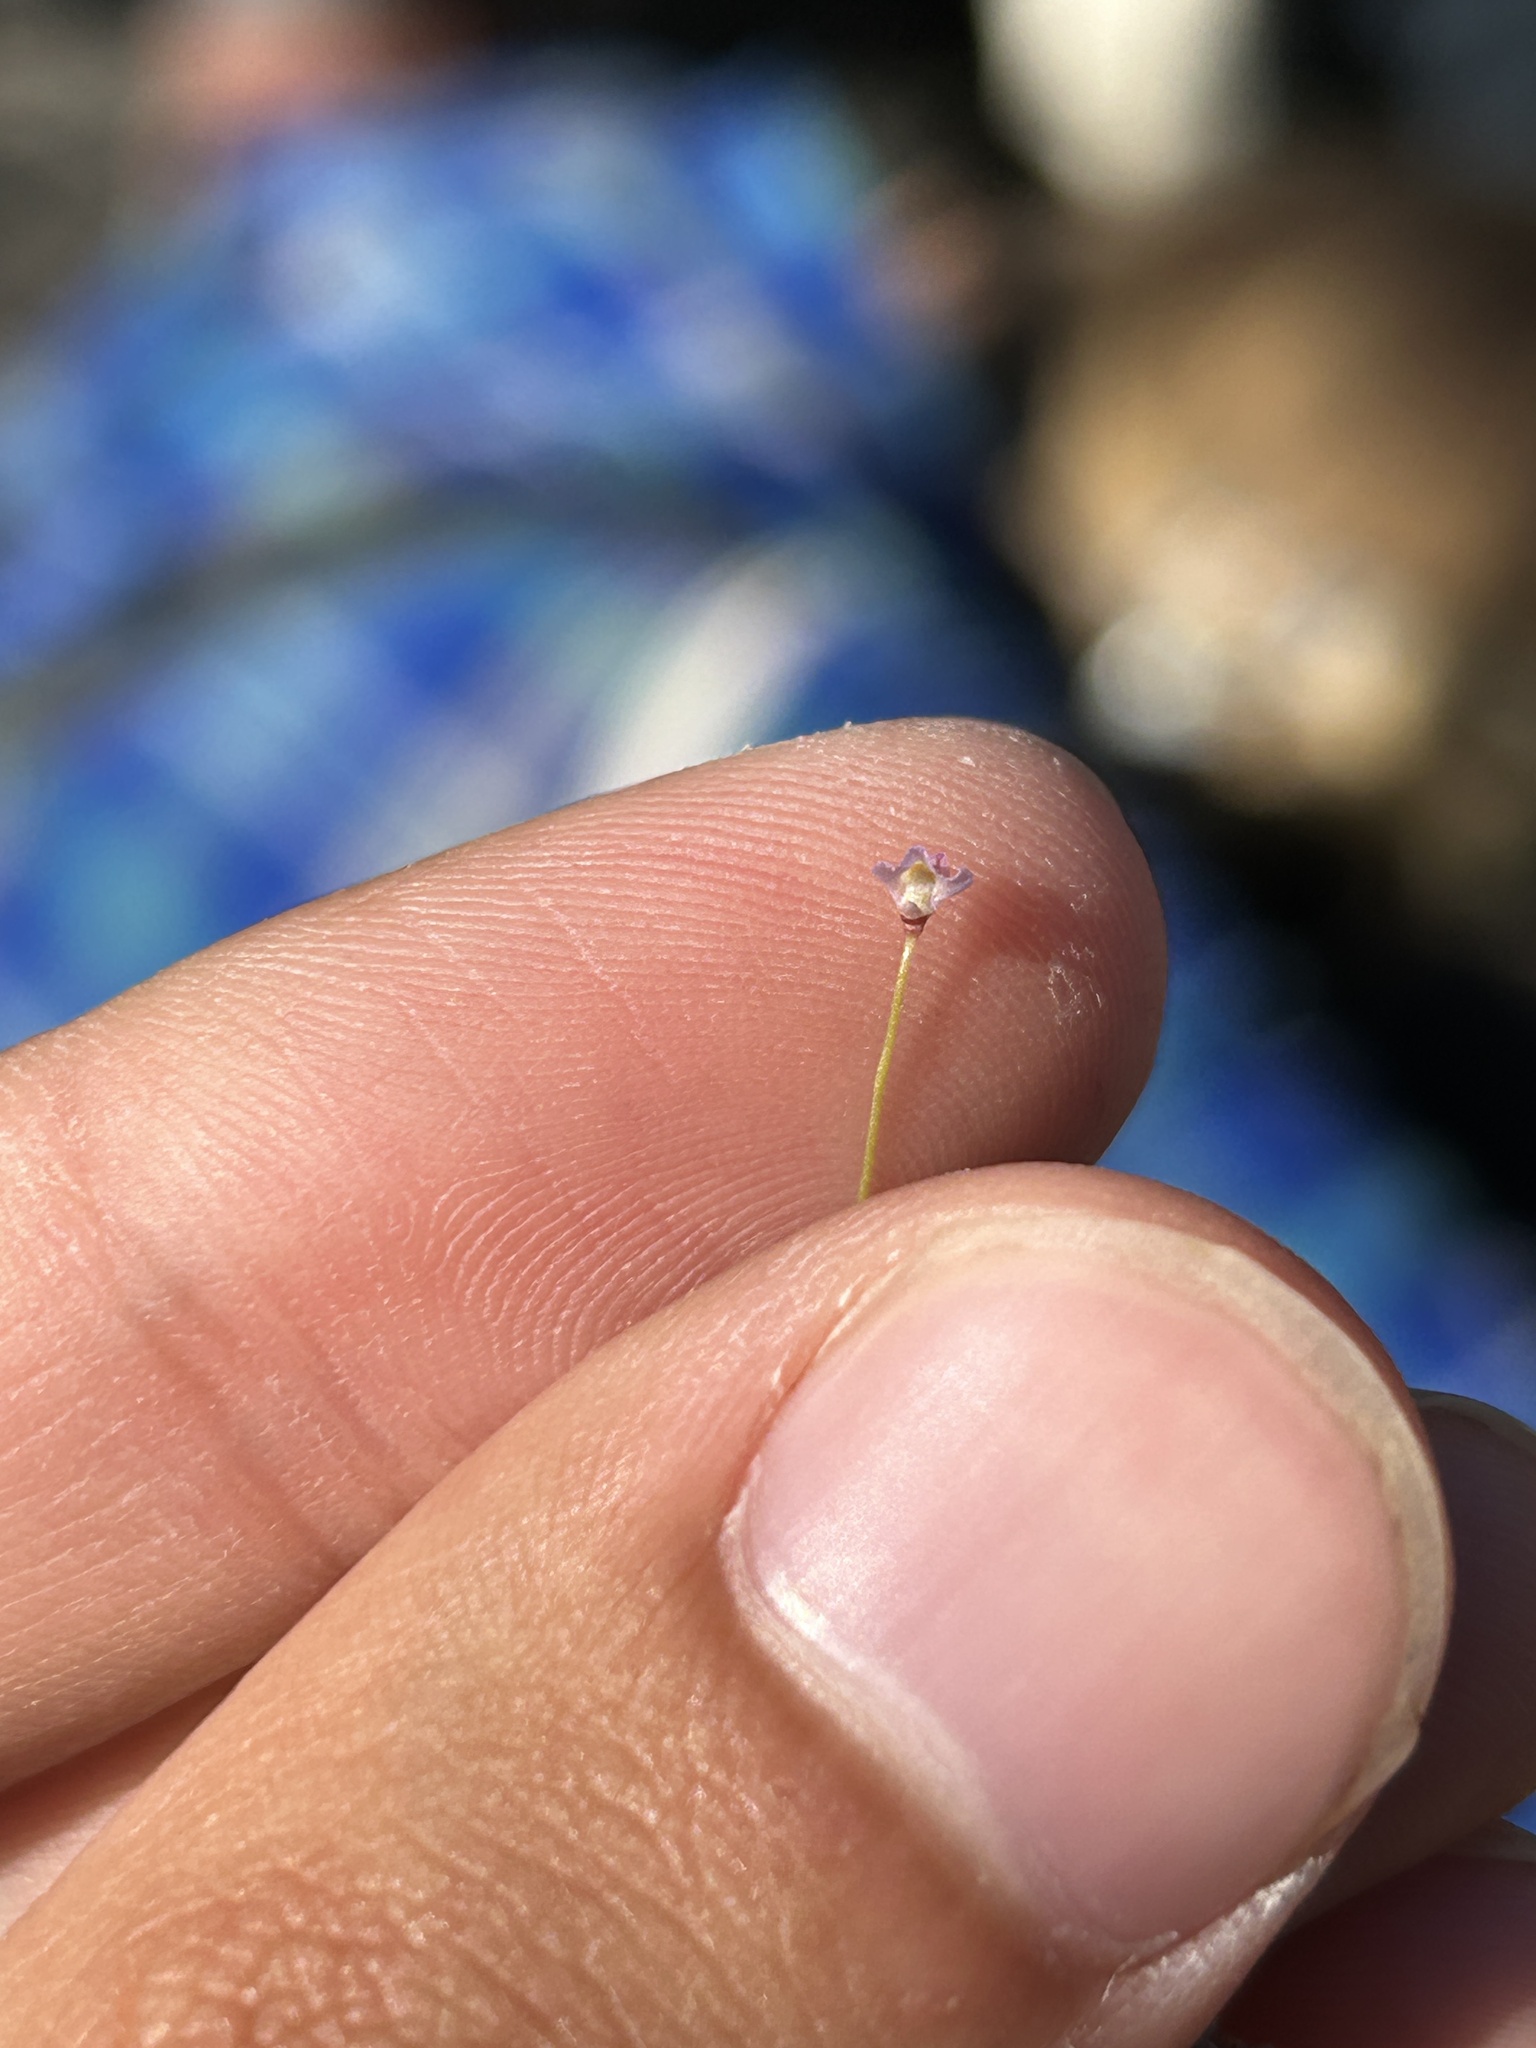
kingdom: Plantae
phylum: Tracheophyta
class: Magnoliopsida
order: Lamiales
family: Lentibulariaceae
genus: Utricularia
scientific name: Utricularia bisquamata
